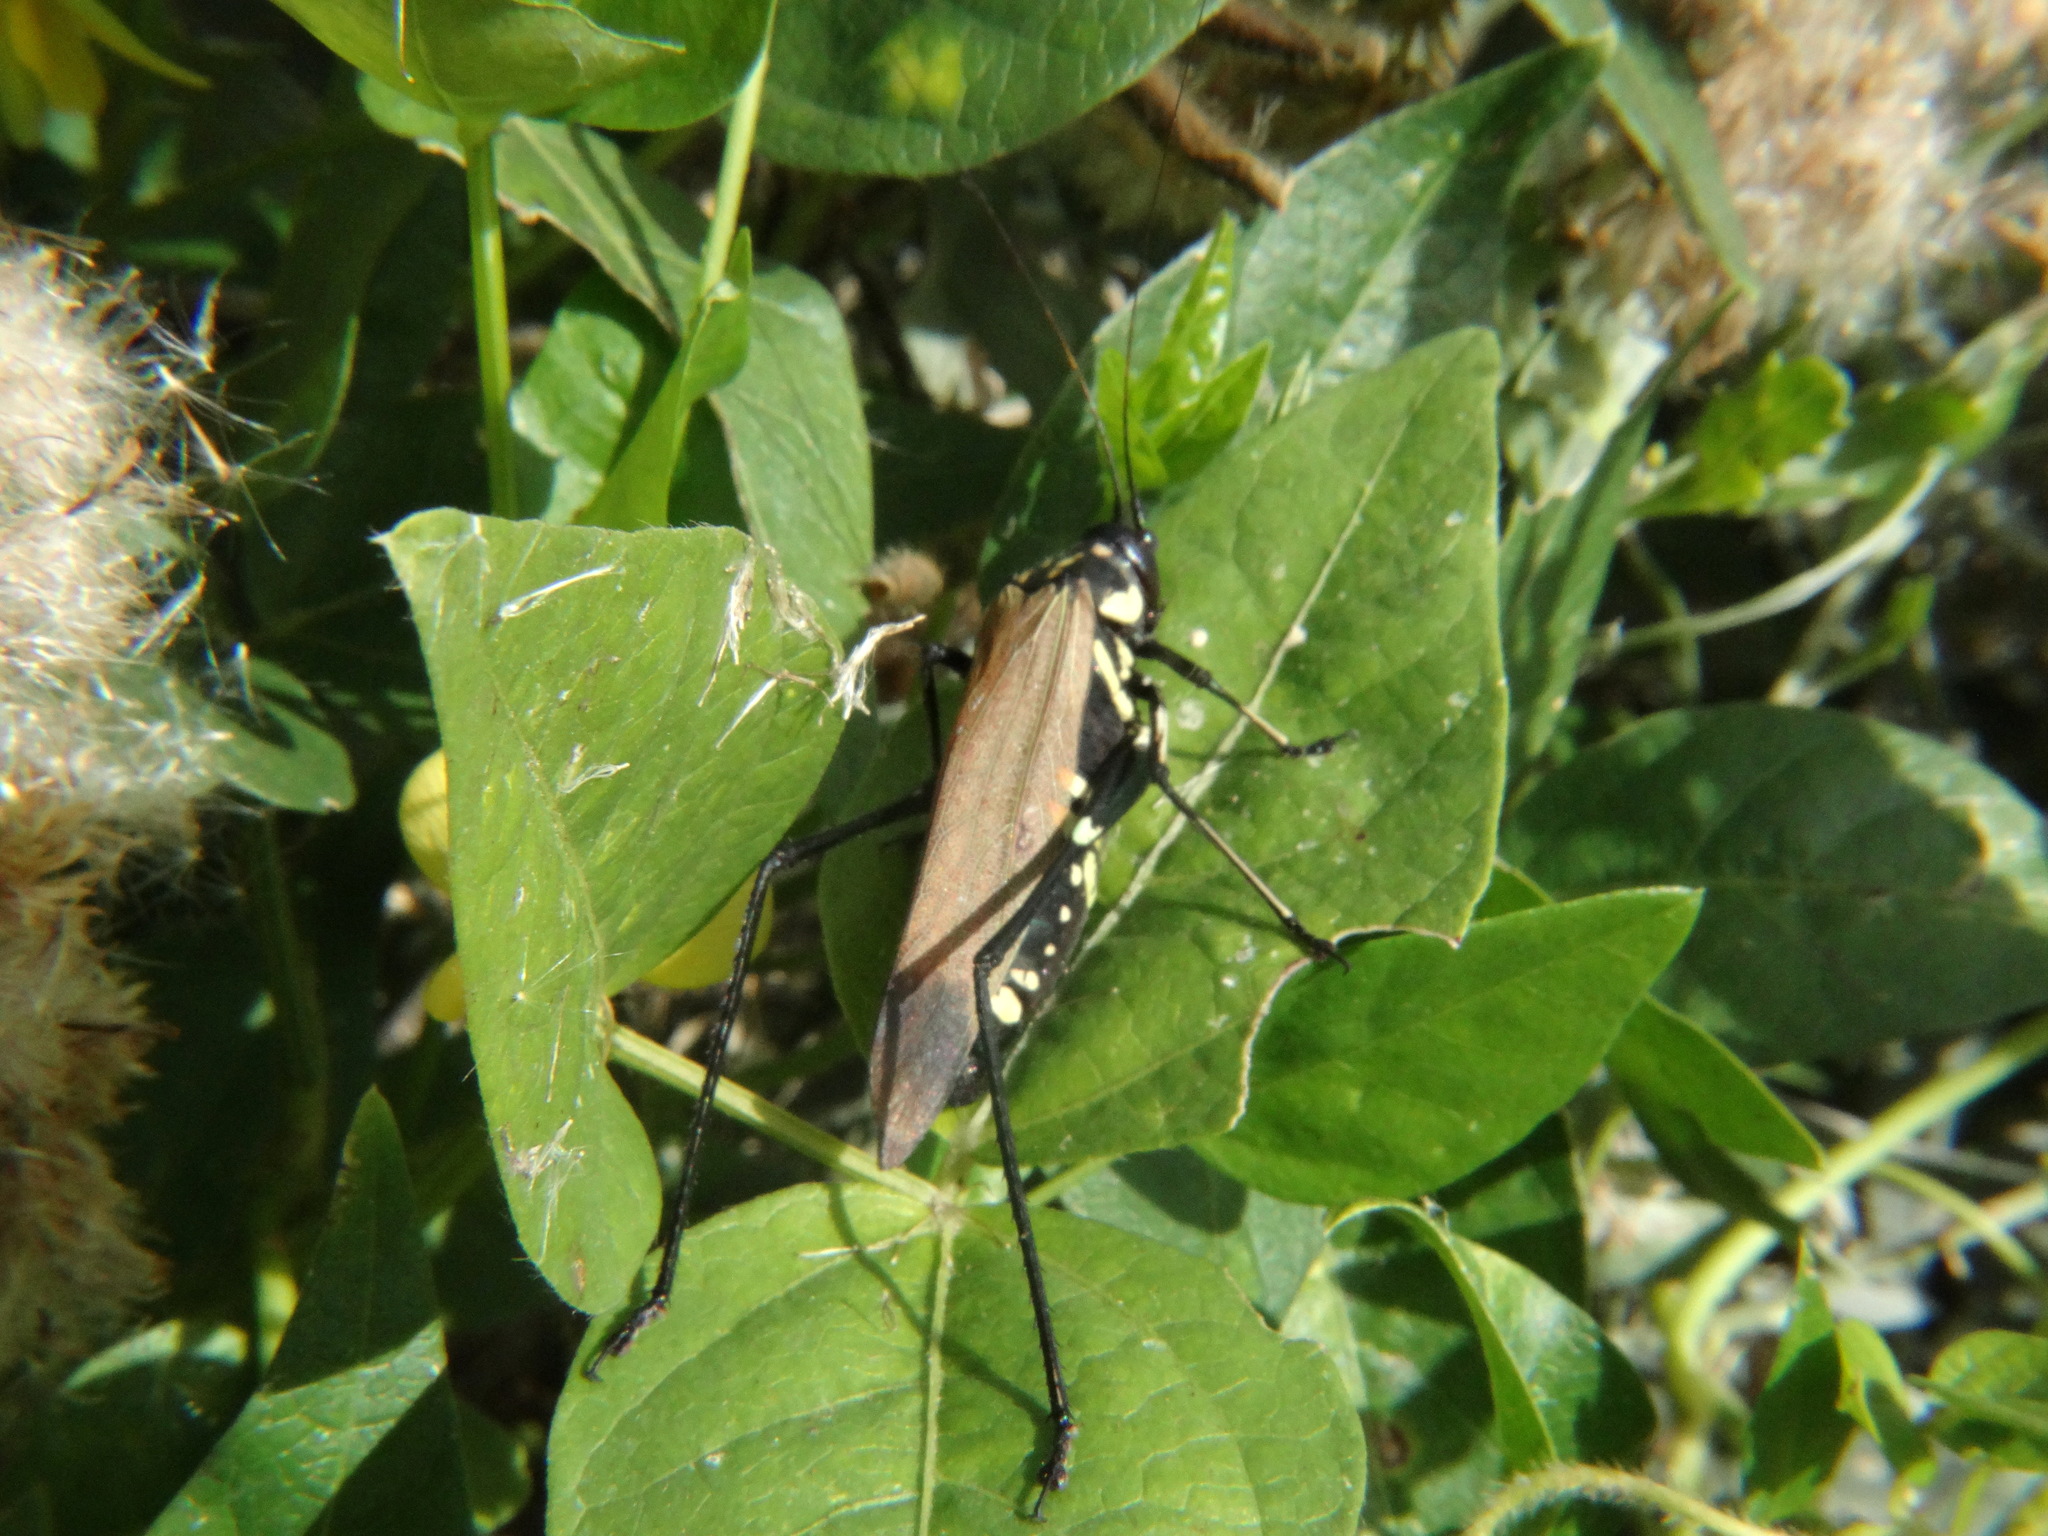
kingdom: Animalia
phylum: Arthropoda
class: Insecta
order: Orthoptera
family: Tettigoniidae
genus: Scaphura
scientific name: Scaphura elegans
